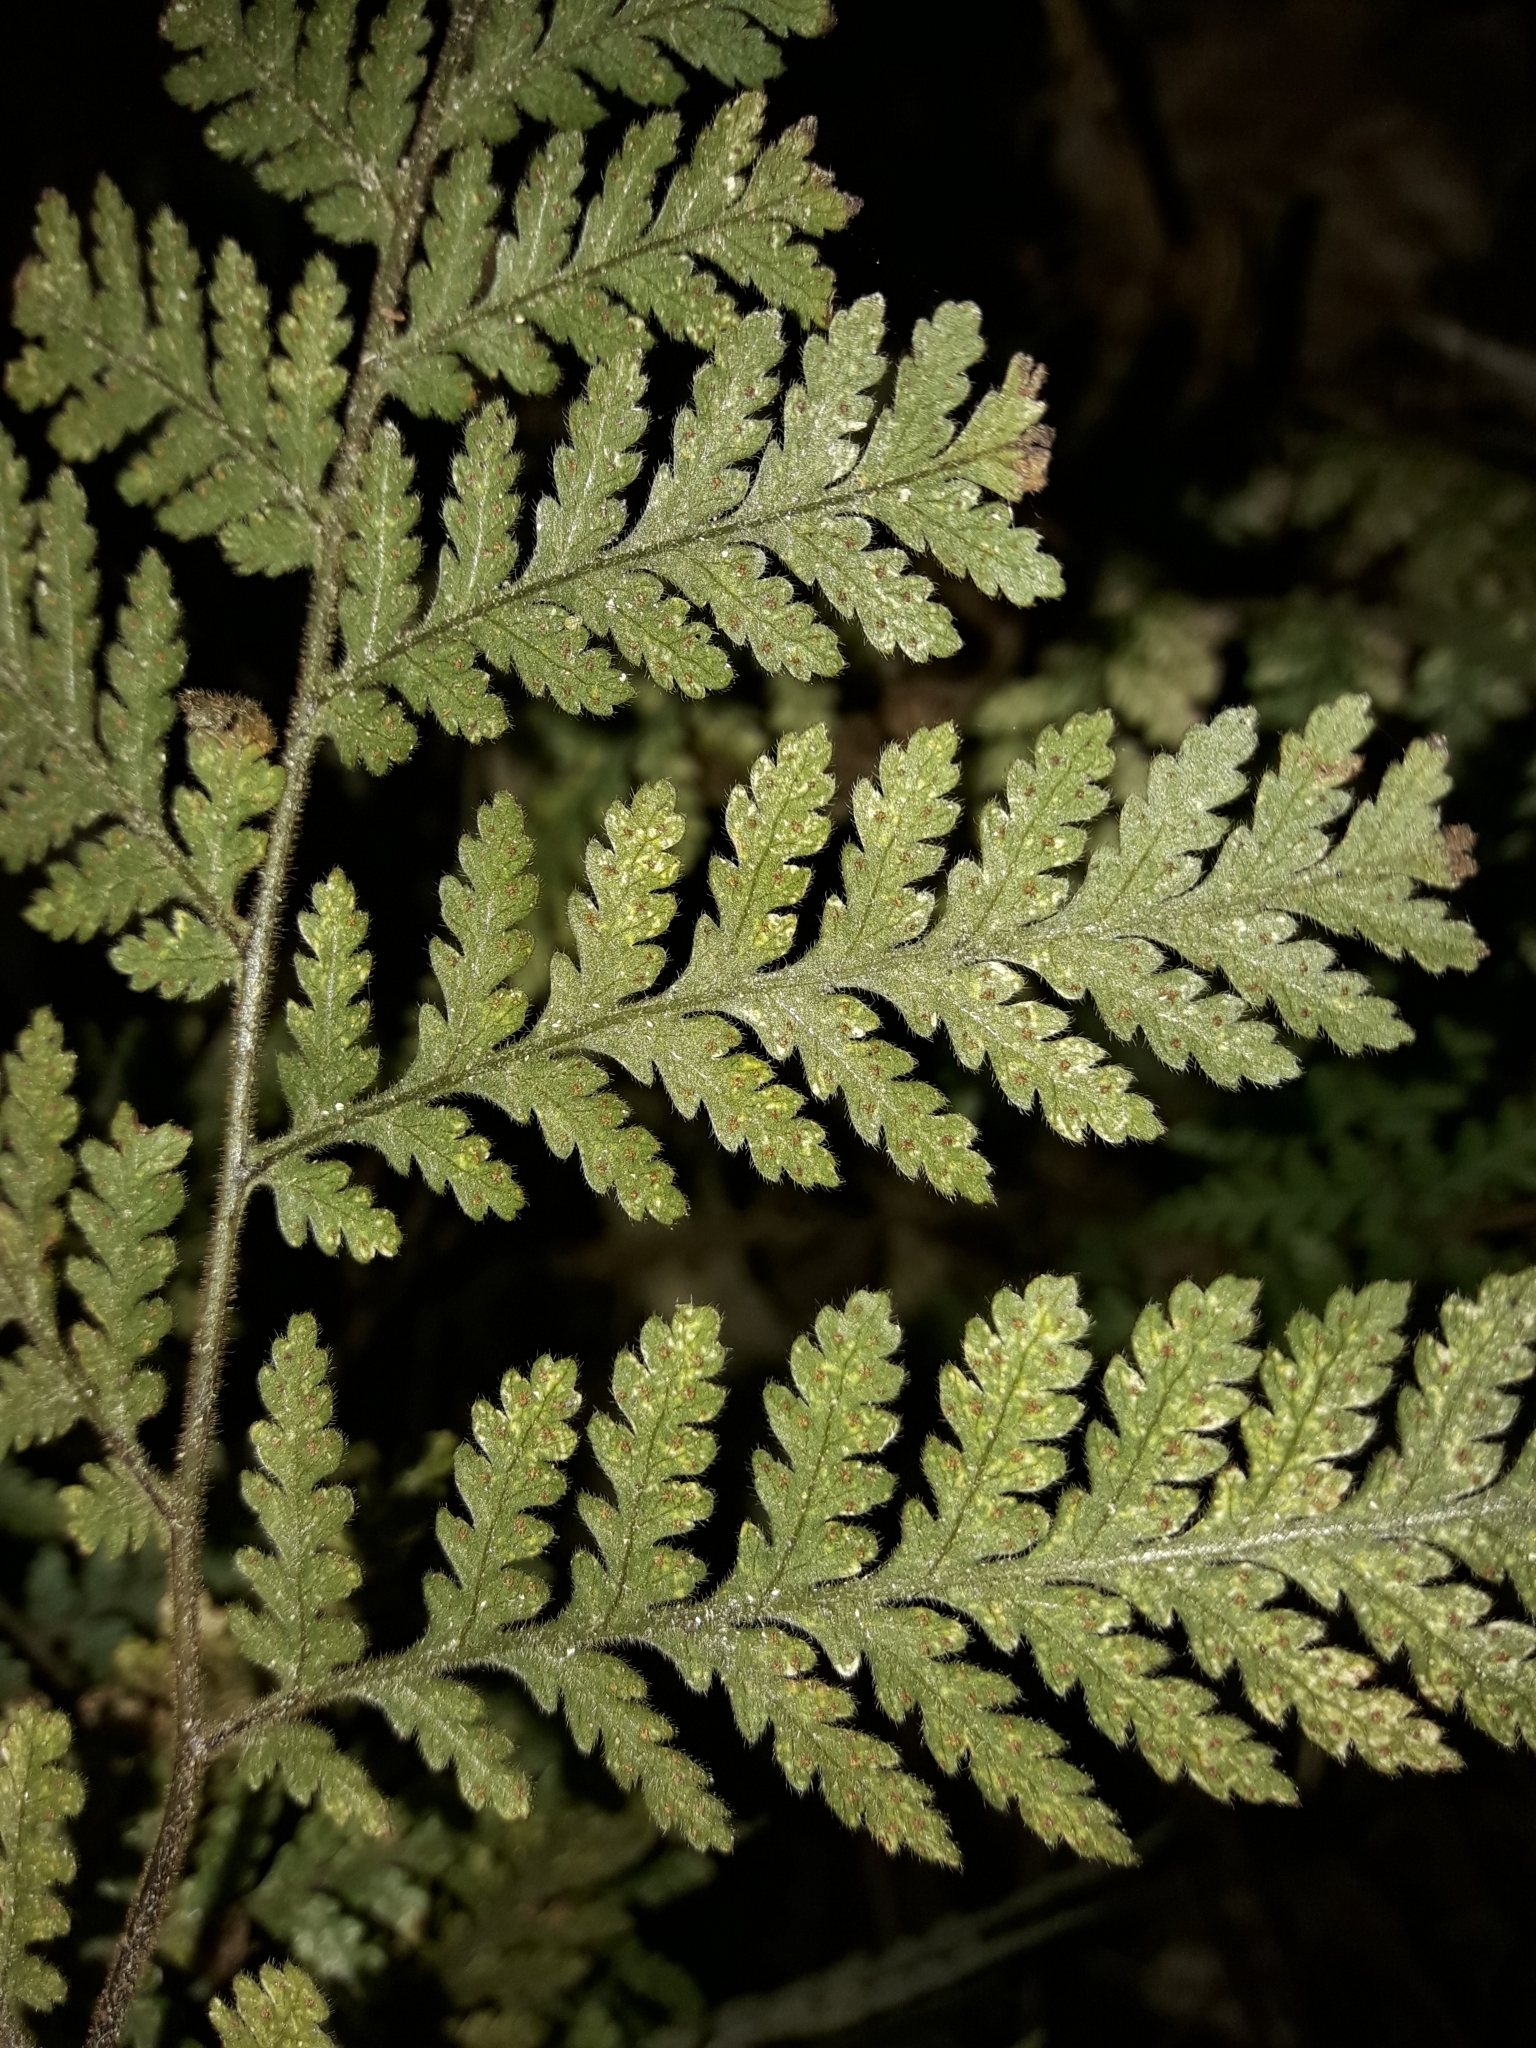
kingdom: Plantae
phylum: Tracheophyta
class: Polypodiopsida
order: Polypodiales
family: Dryopteridaceae
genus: Lastreopsis
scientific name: Lastreopsis velutina
